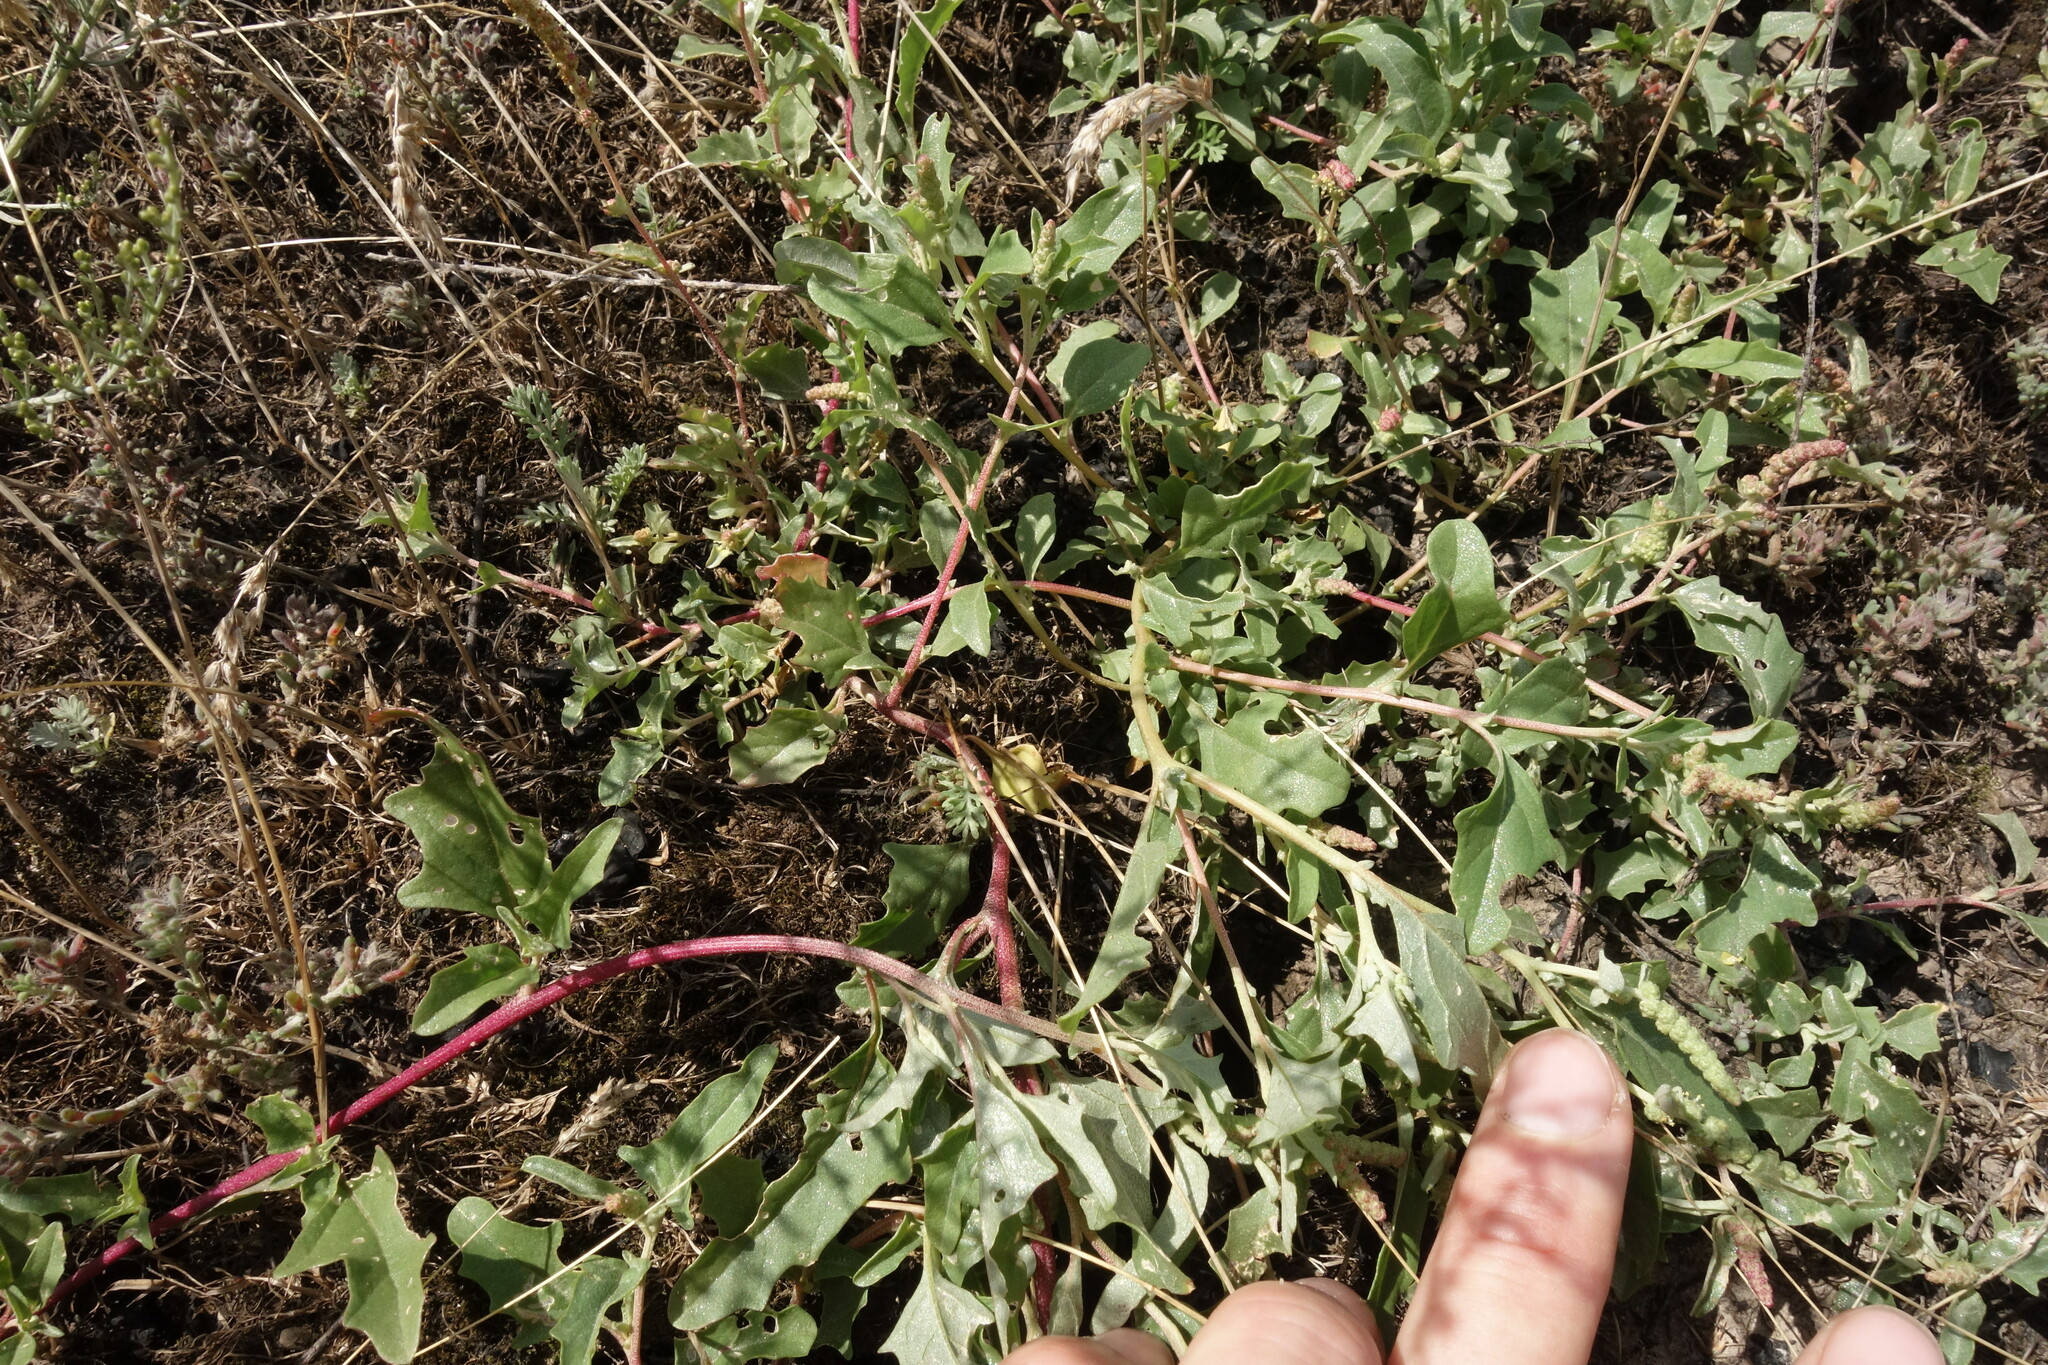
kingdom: Plantae
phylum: Tracheophyta
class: Magnoliopsida
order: Caryophyllales
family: Amaranthaceae
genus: Atriplex
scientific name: Atriplex tatarica
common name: Tatarian orache
